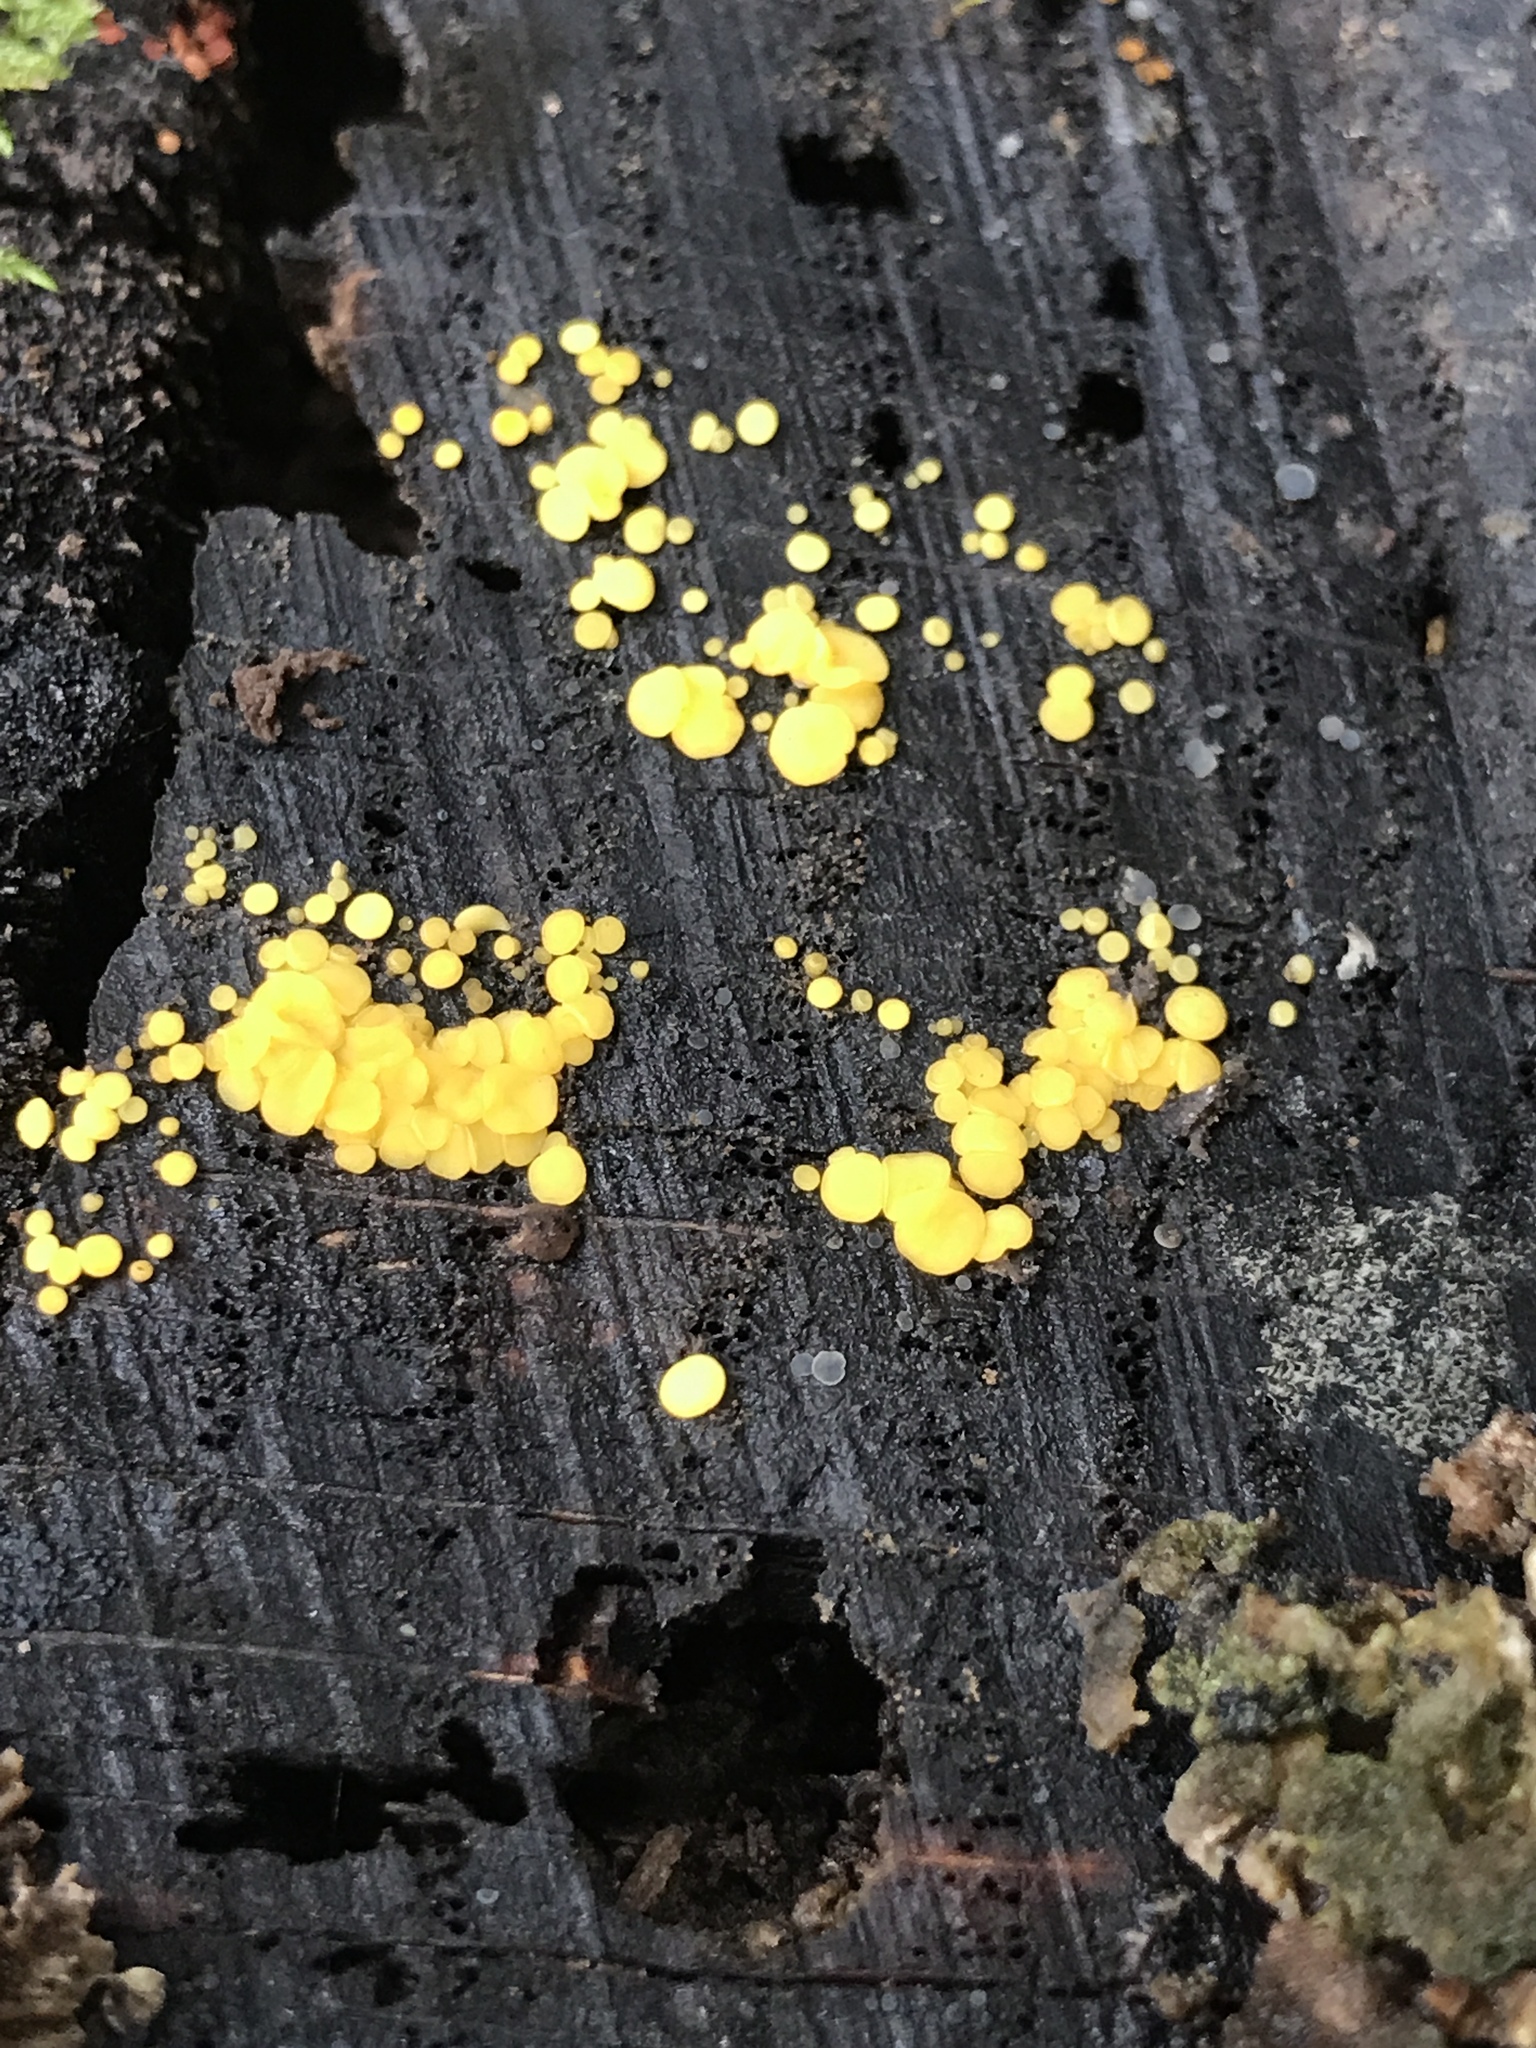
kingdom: Fungi
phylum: Ascomycota
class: Leotiomycetes
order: Helotiales
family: Pezizellaceae
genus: Calycina
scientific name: Calycina citrina
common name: Yellow fairy cups
